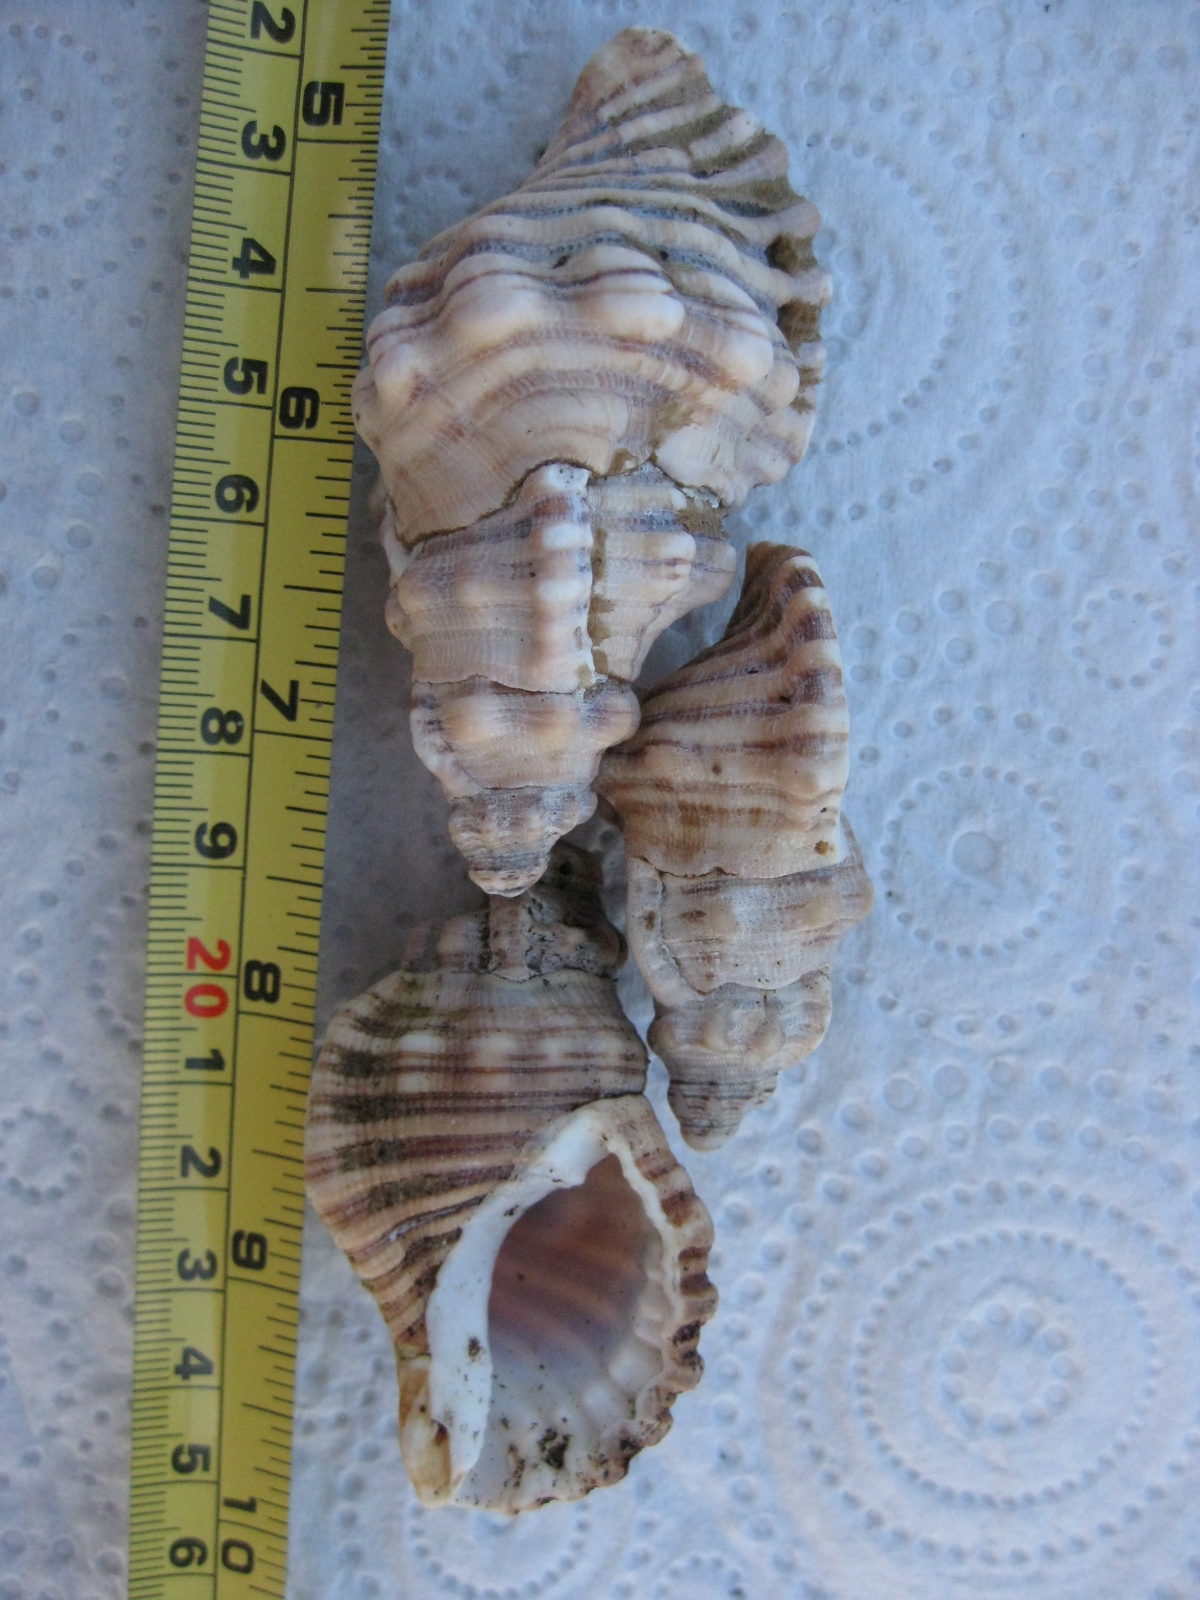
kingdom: Animalia
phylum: Mollusca
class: Gastropoda
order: Littorinimorpha
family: Cymatiidae
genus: Cabestana
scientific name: Cabestana spengleri
